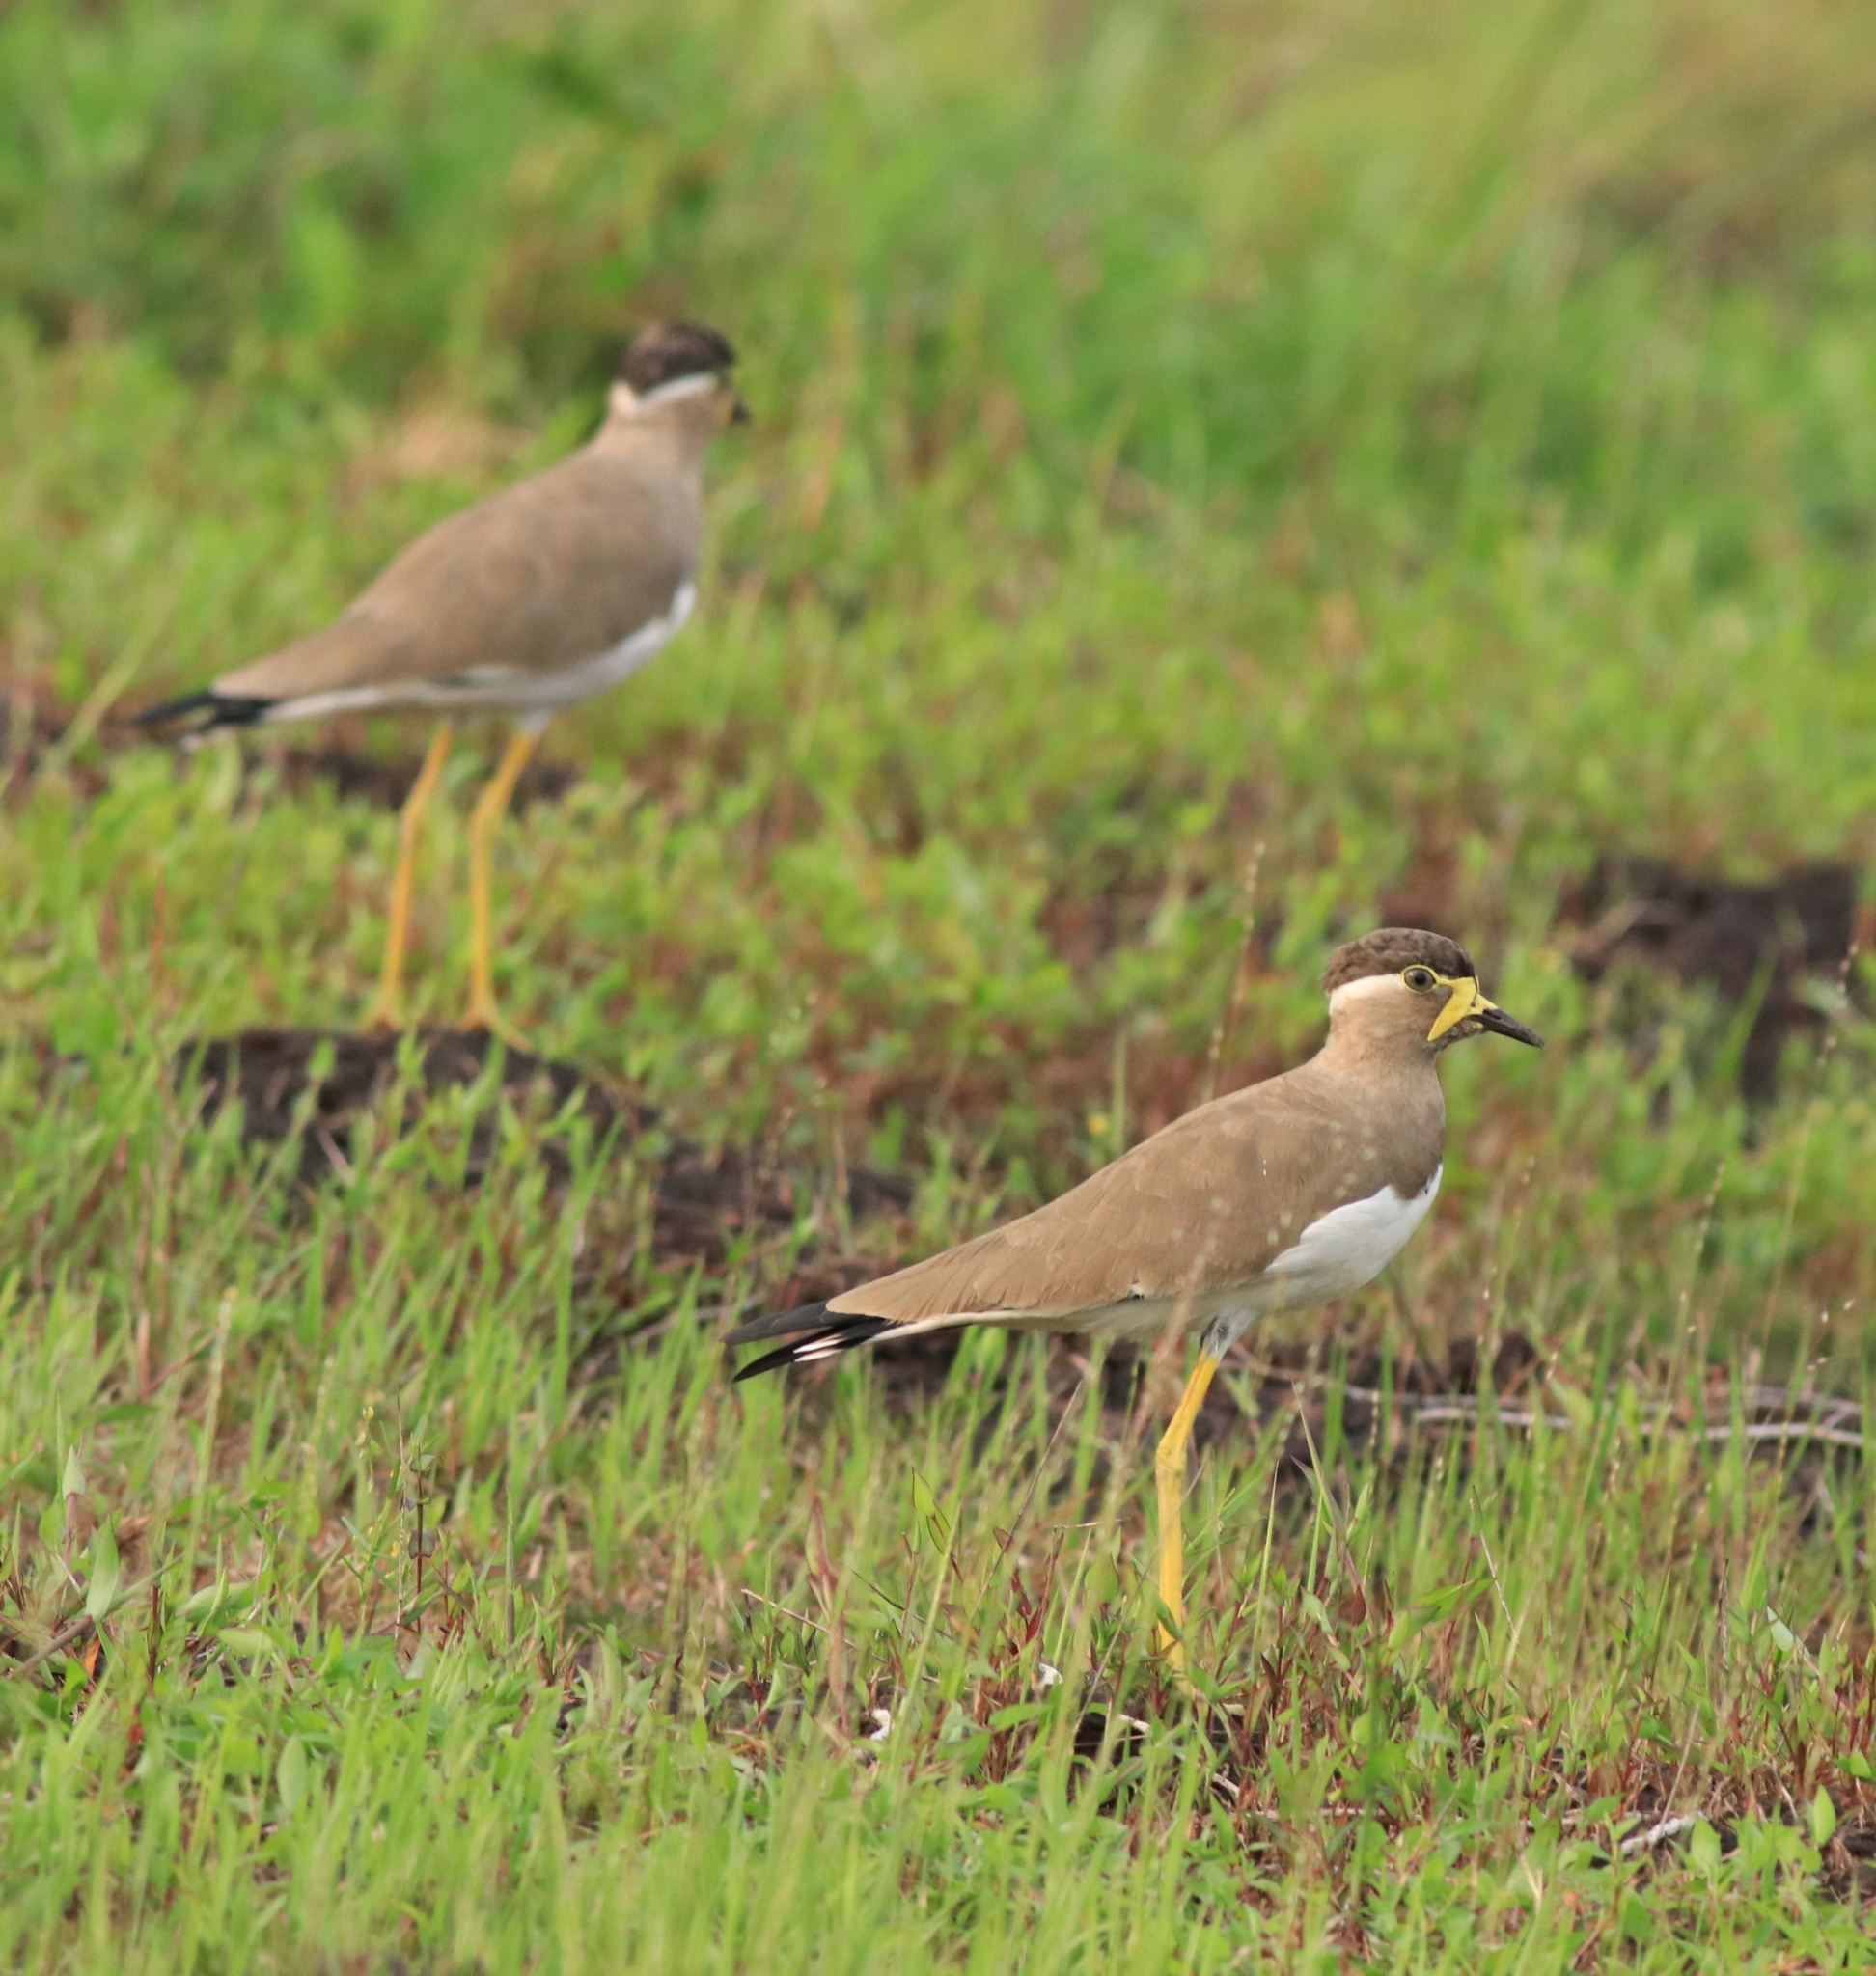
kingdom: Animalia
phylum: Chordata
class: Aves
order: Charadriiformes
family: Charadriidae
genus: Vanellus
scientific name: Vanellus malabaricus
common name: Yellow-wattled lapwing
